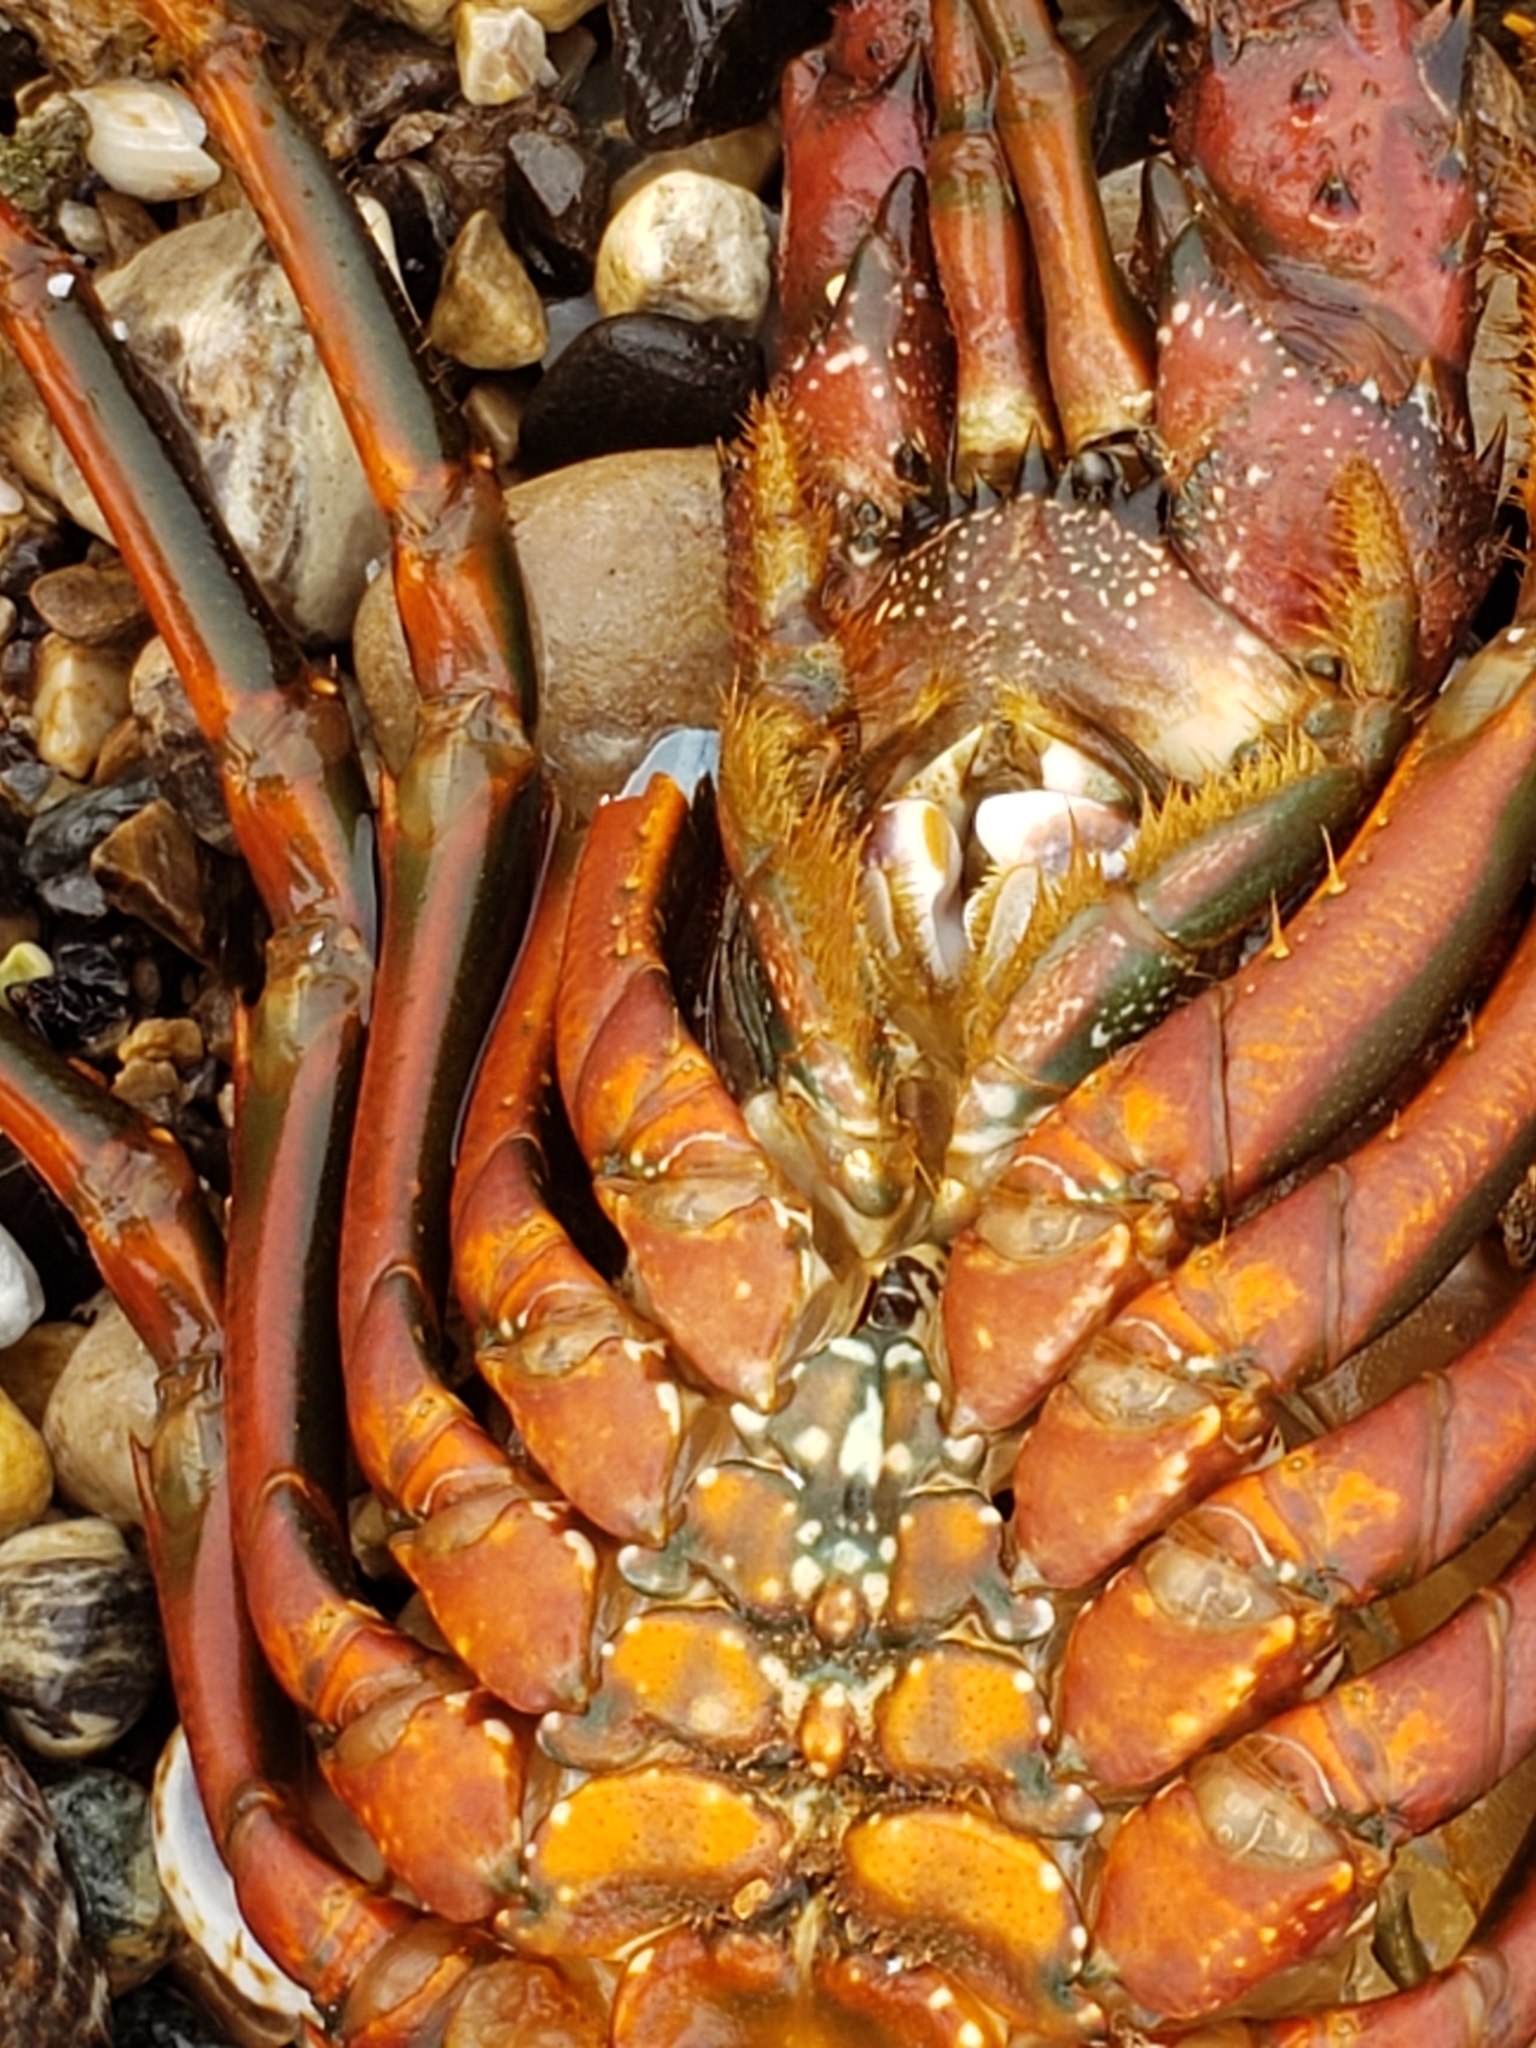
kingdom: Animalia
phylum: Arthropoda
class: Malacostraca
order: Decapoda
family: Palinuridae
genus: Panulirus
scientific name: Panulirus interruptus
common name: California spiny lobster
